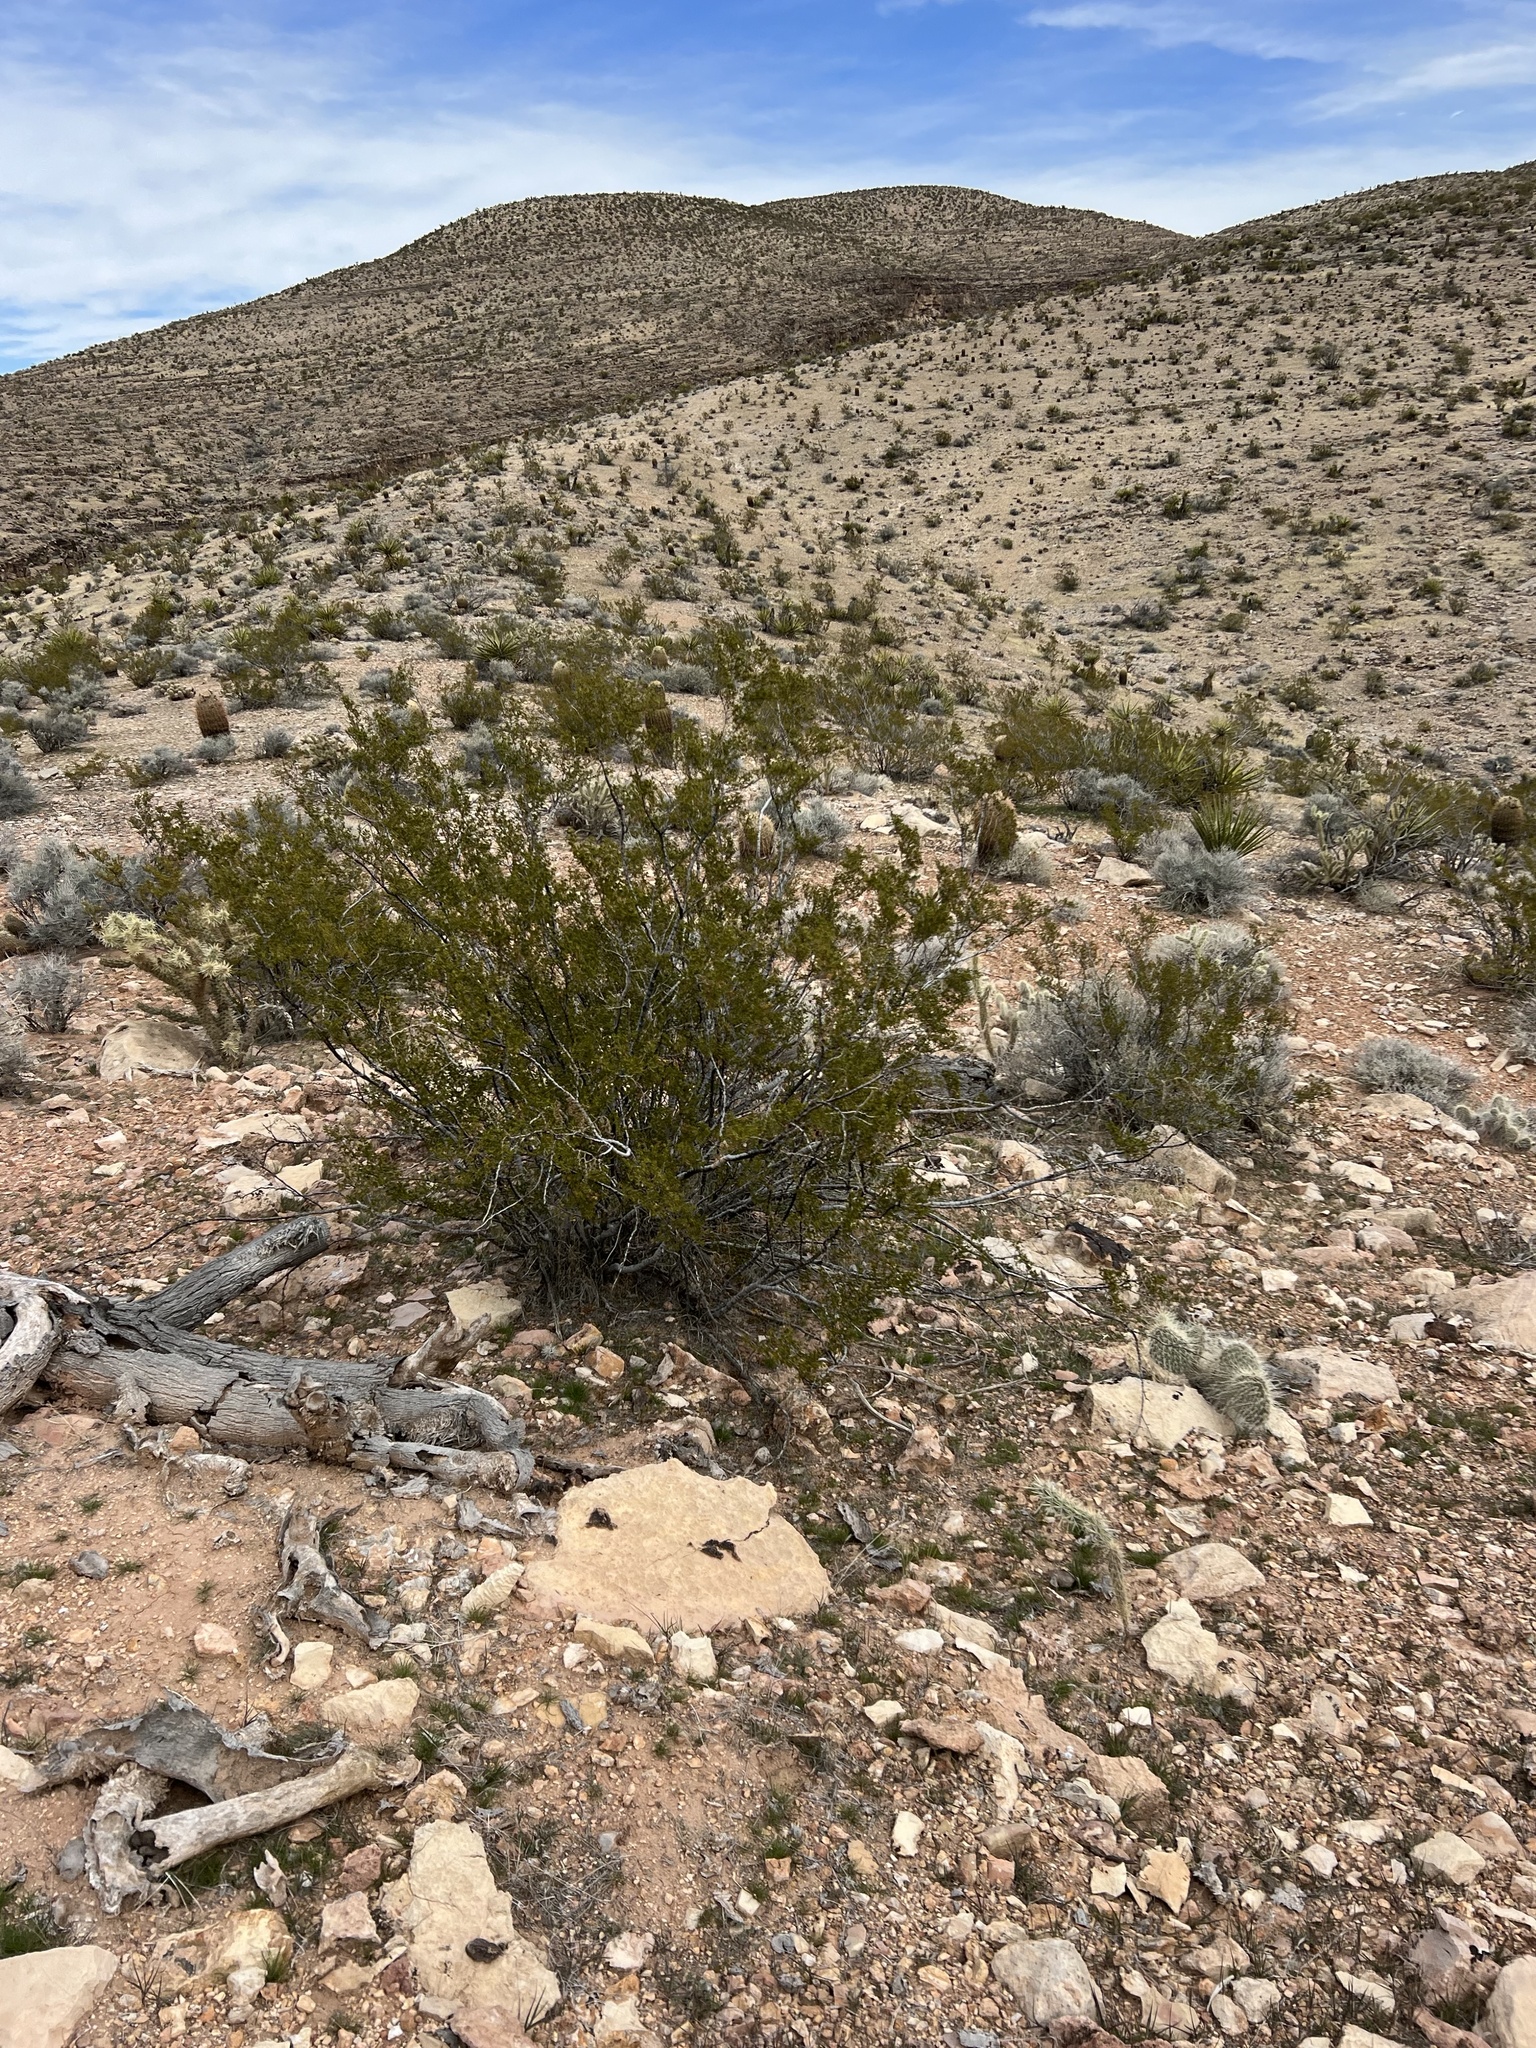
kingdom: Plantae
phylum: Tracheophyta
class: Magnoliopsida
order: Zygophyllales
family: Zygophyllaceae
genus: Larrea
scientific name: Larrea tridentata
